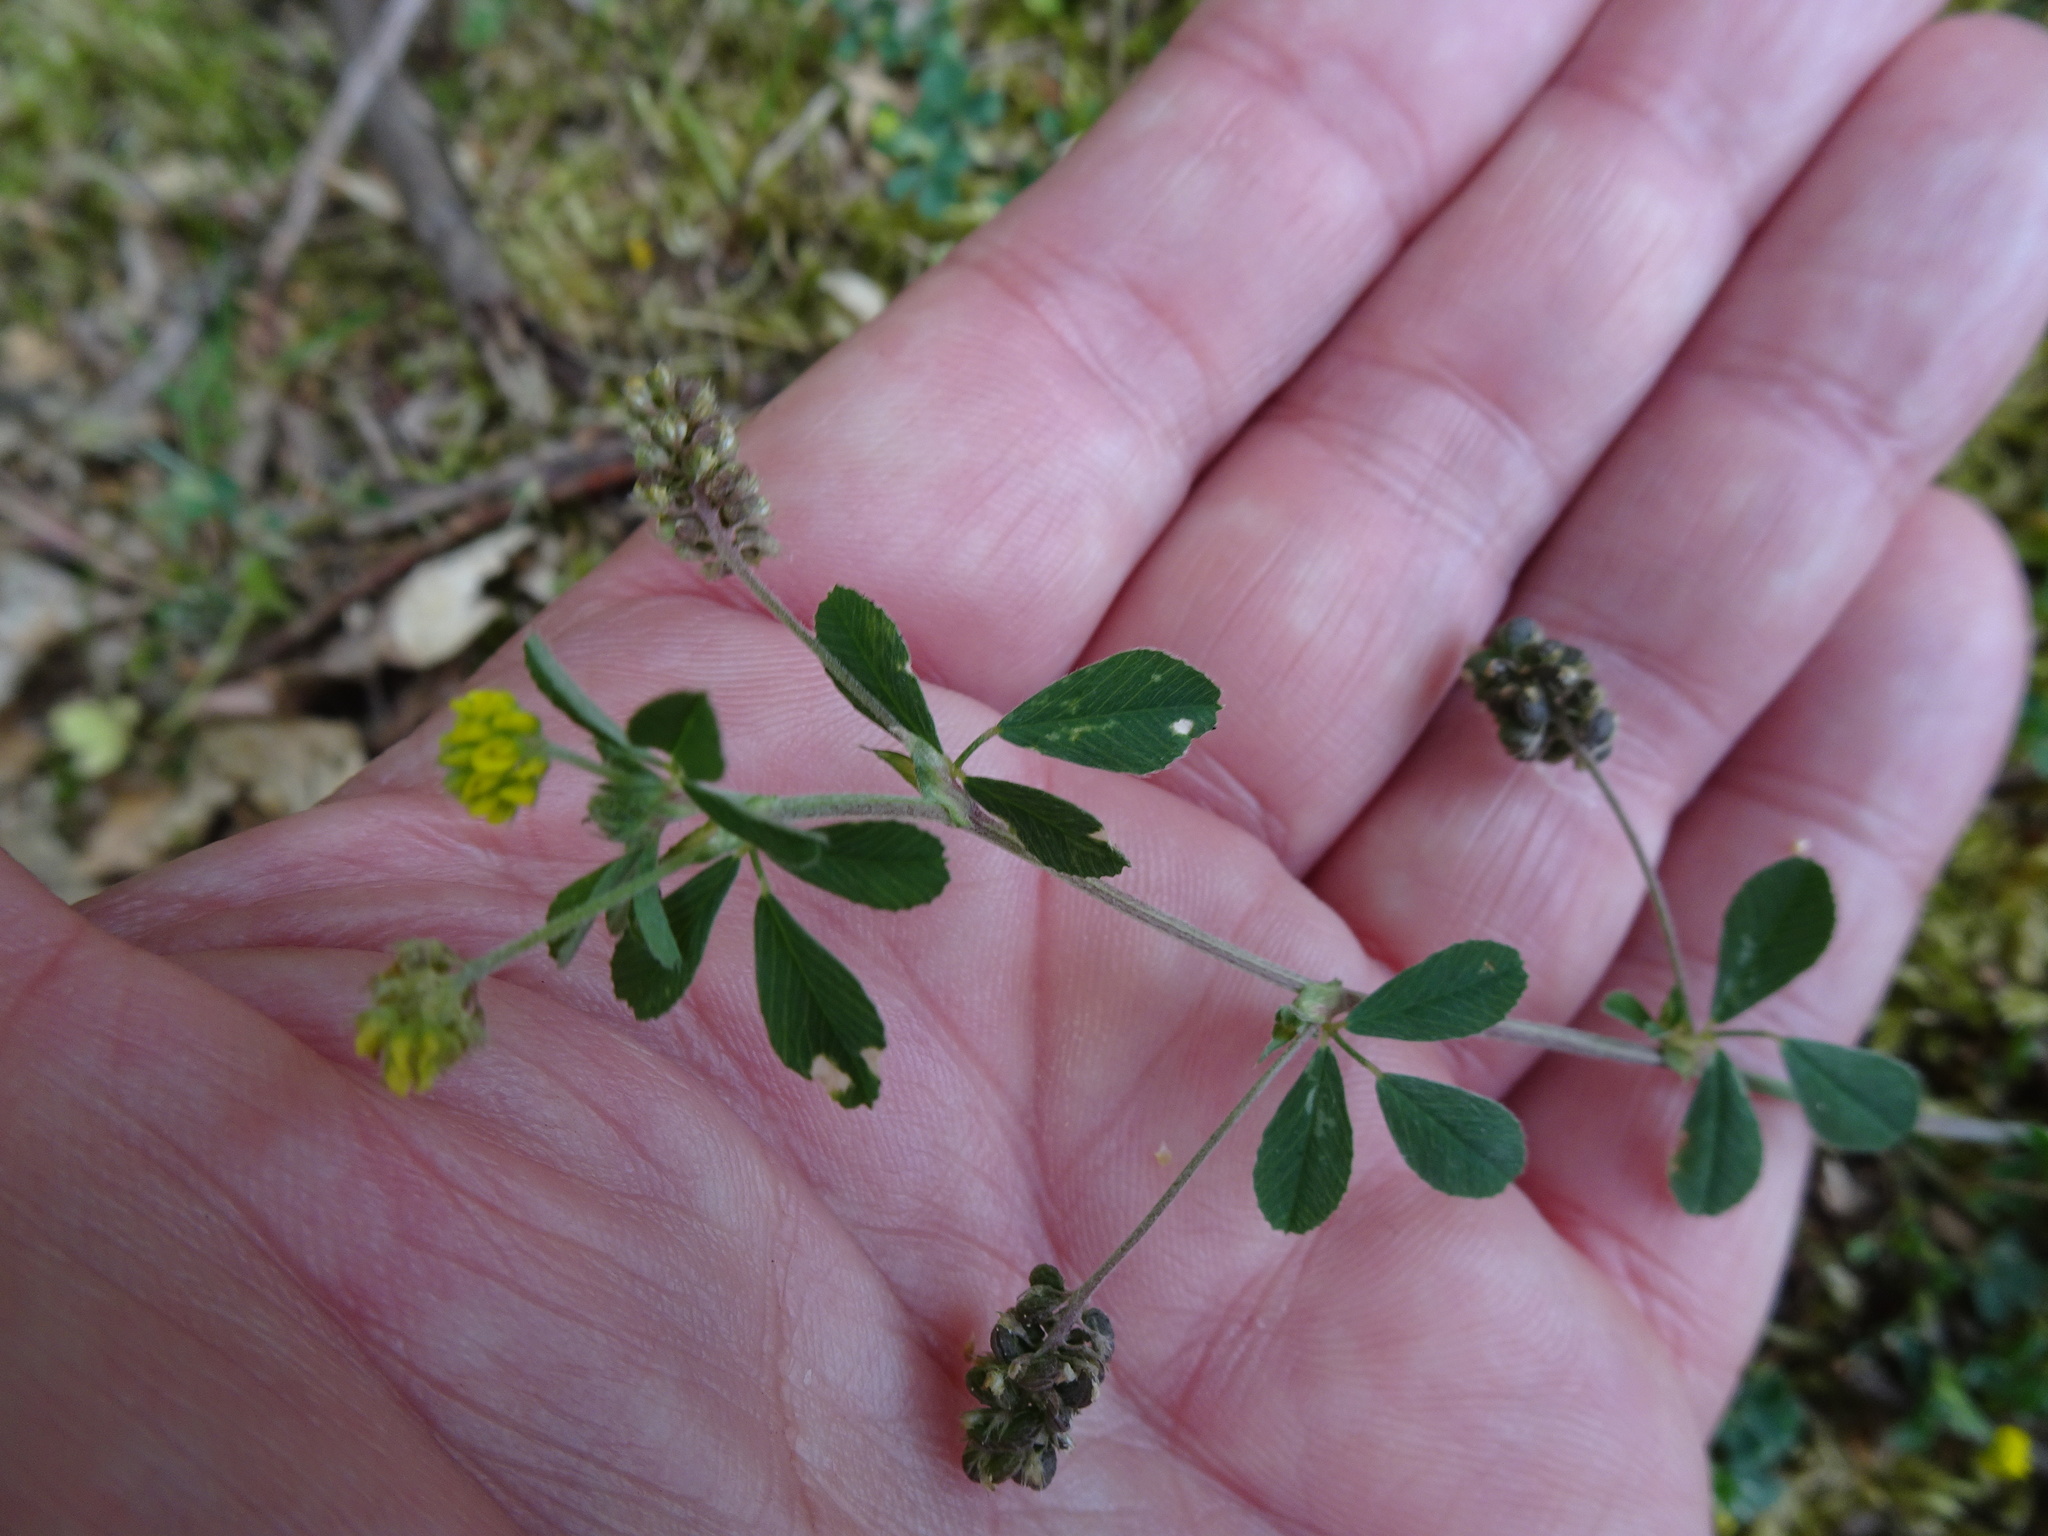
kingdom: Plantae
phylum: Tracheophyta
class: Magnoliopsida
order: Fabales
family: Fabaceae
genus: Medicago
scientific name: Medicago lupulina
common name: Black medick
